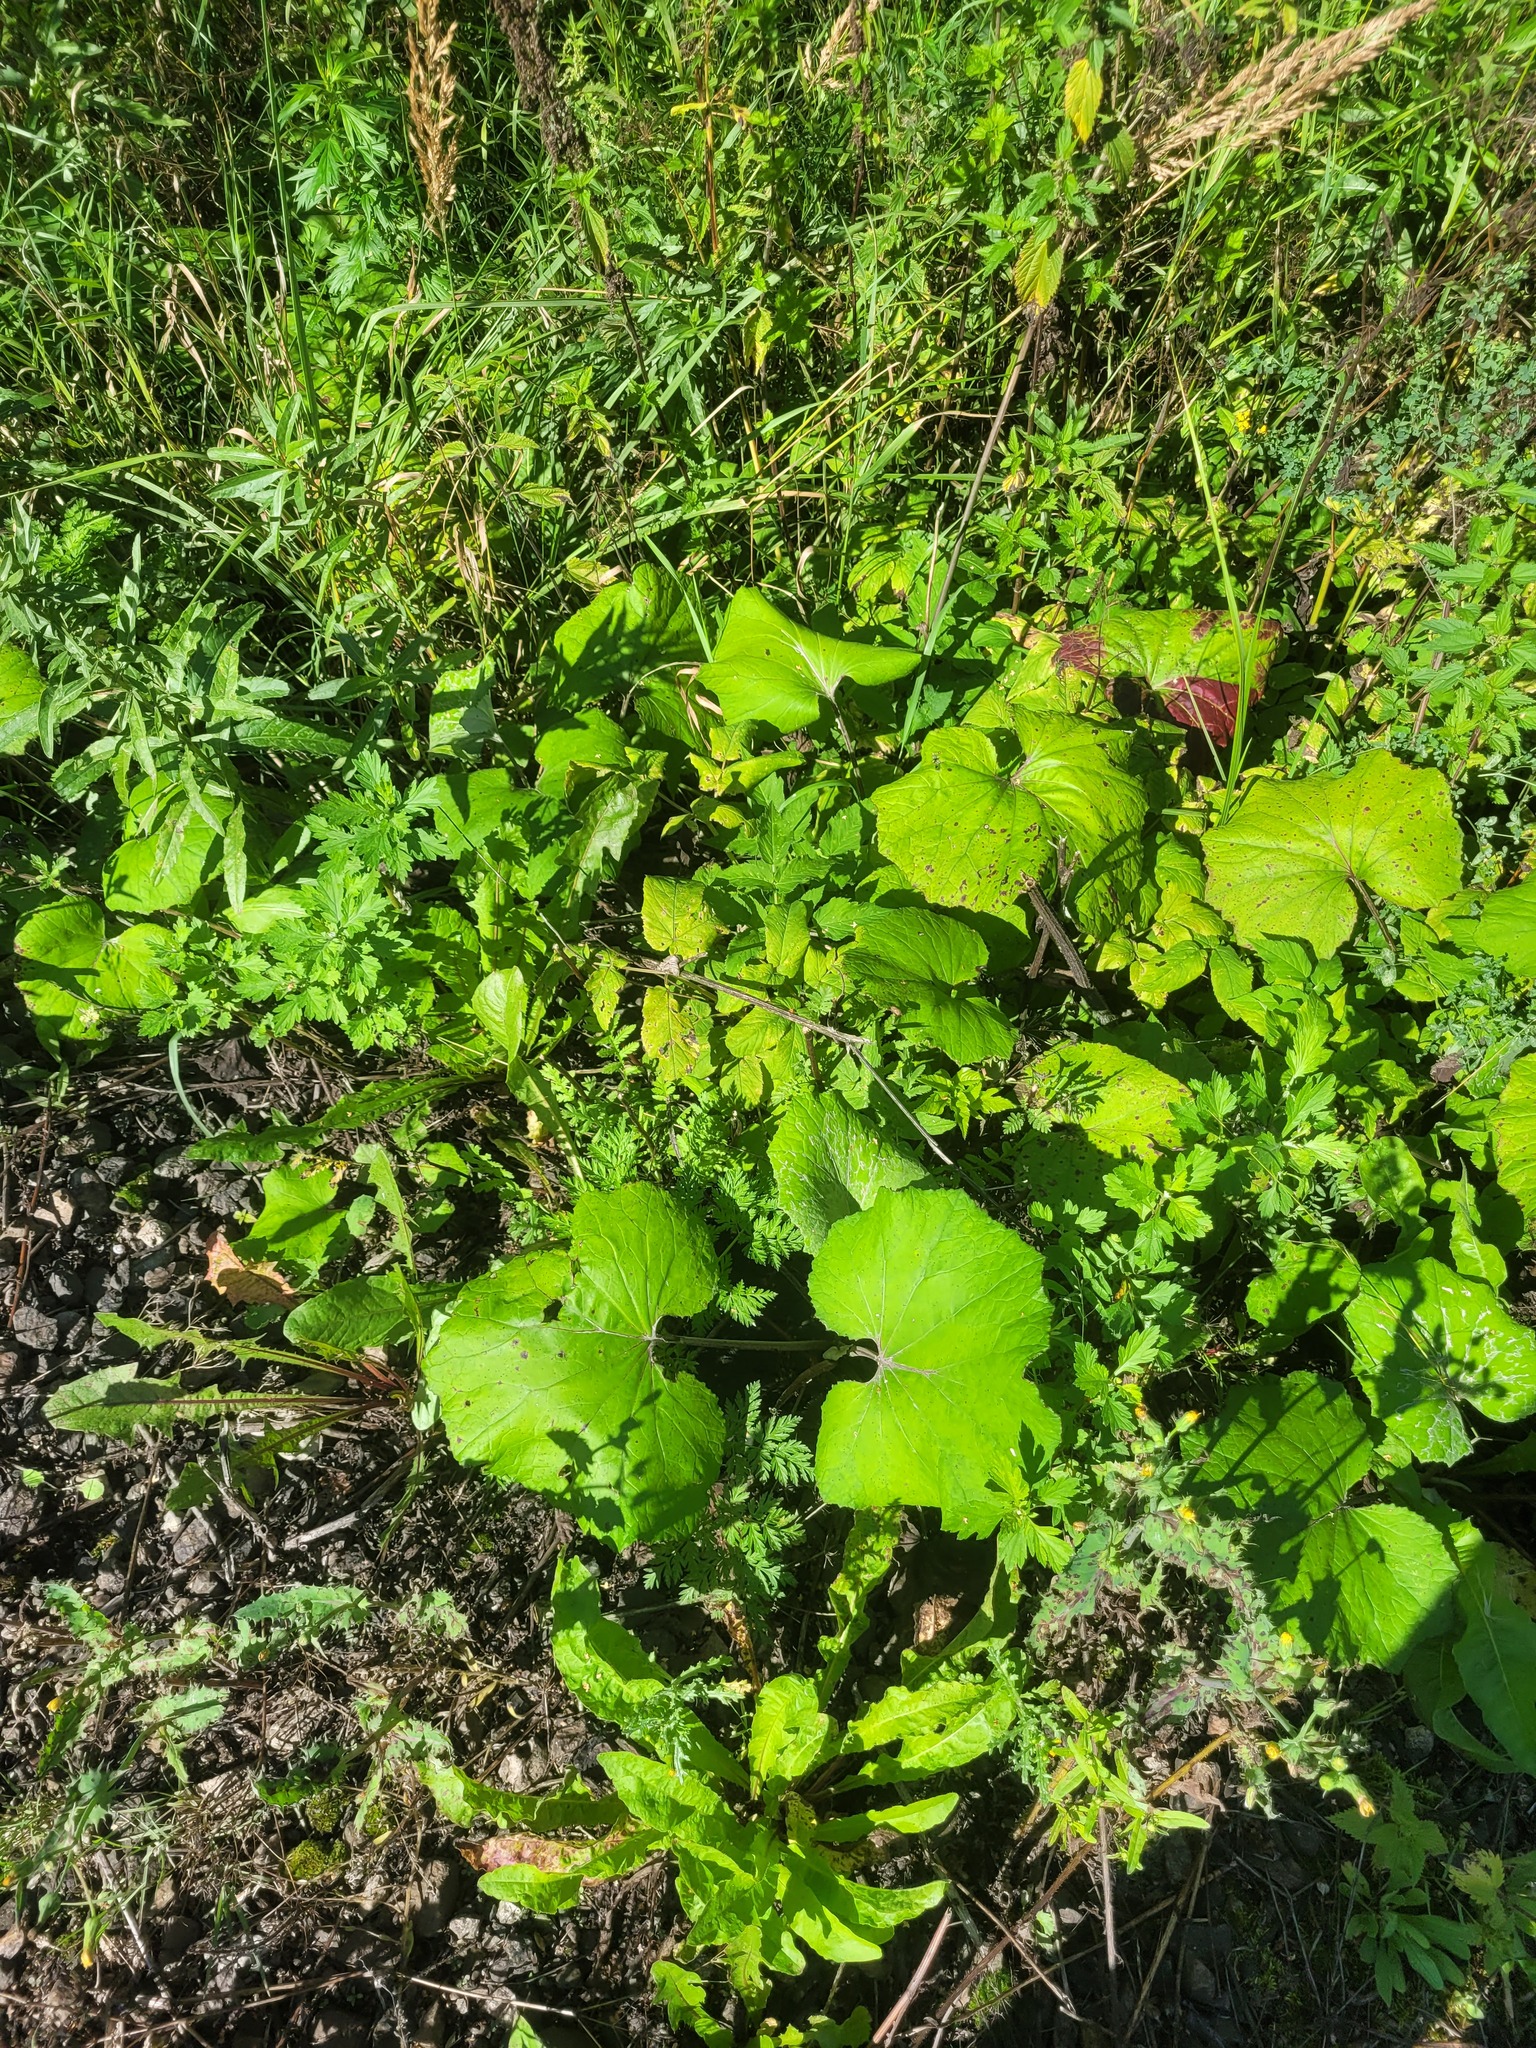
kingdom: Plantae
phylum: Tracheophyta
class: Magnoliopsida
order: Asterales
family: Asteraceae
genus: Tussilago
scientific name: Tussilago farfara
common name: Coltsfoot
